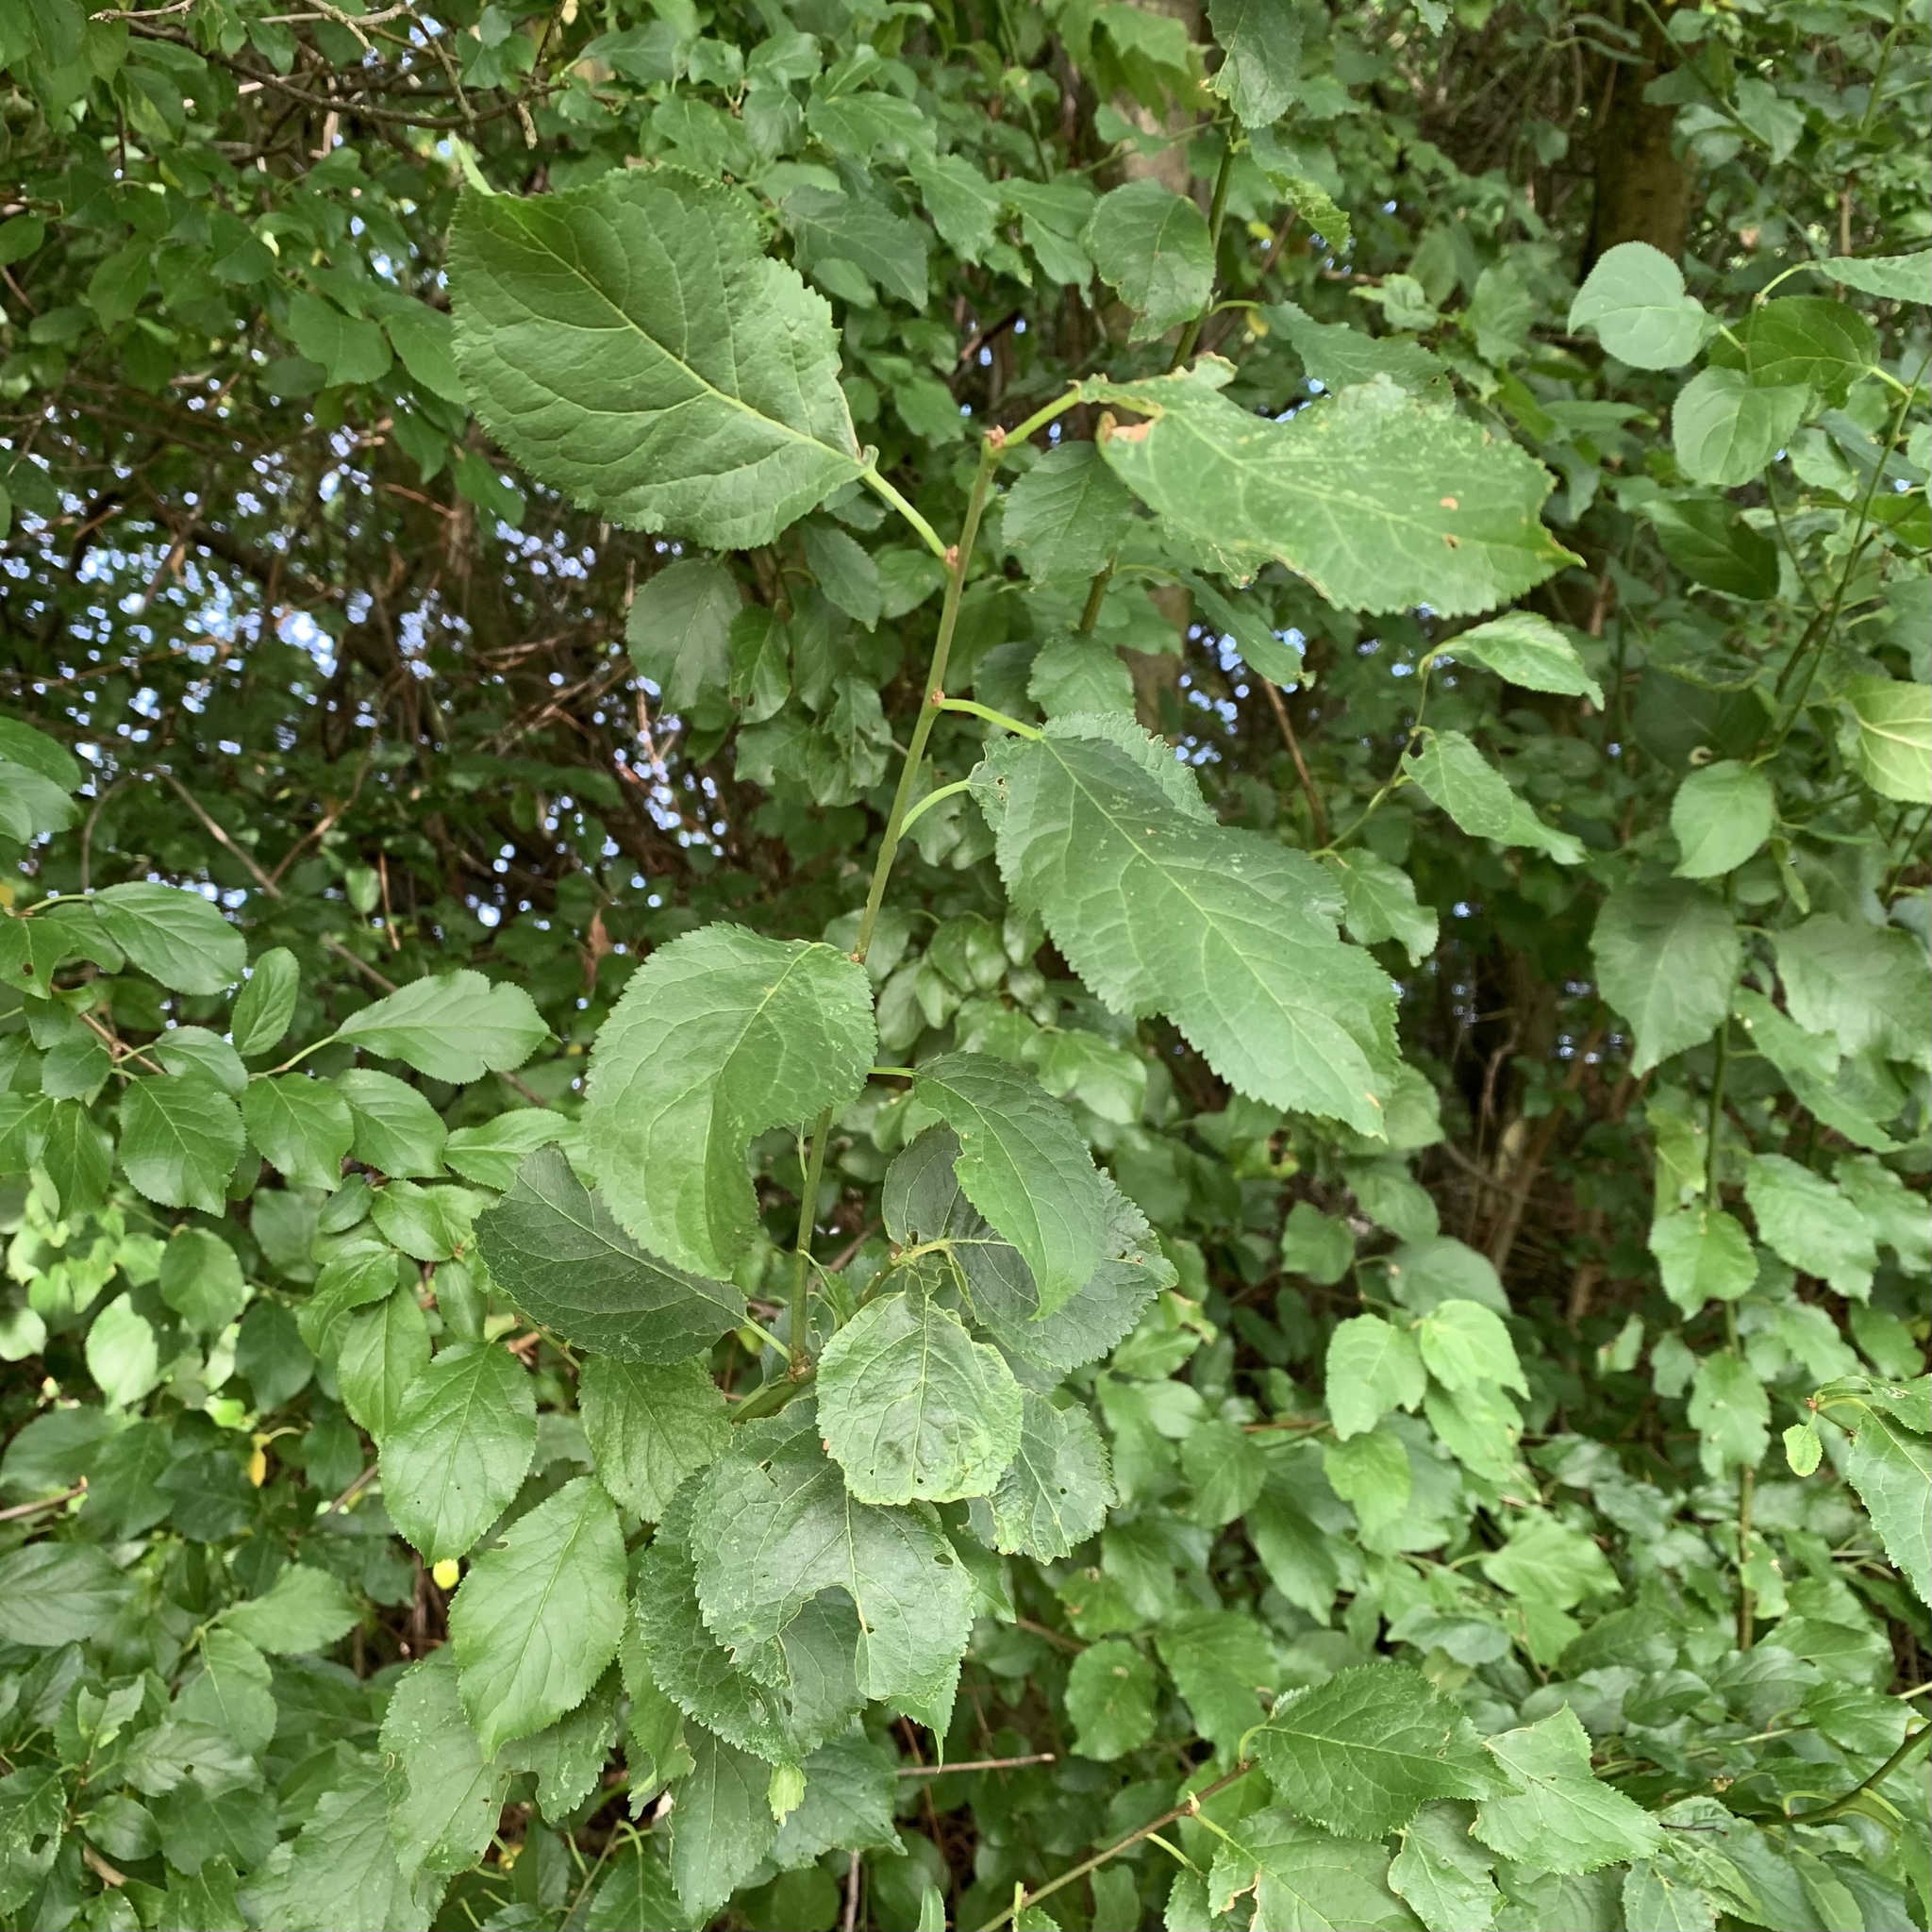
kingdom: Plantae
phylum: Tracheophyta
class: Magnoliopsida
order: Rosales
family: Rosaceae
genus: Prunus
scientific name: Prunus cerasifera
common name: Cherry plum
